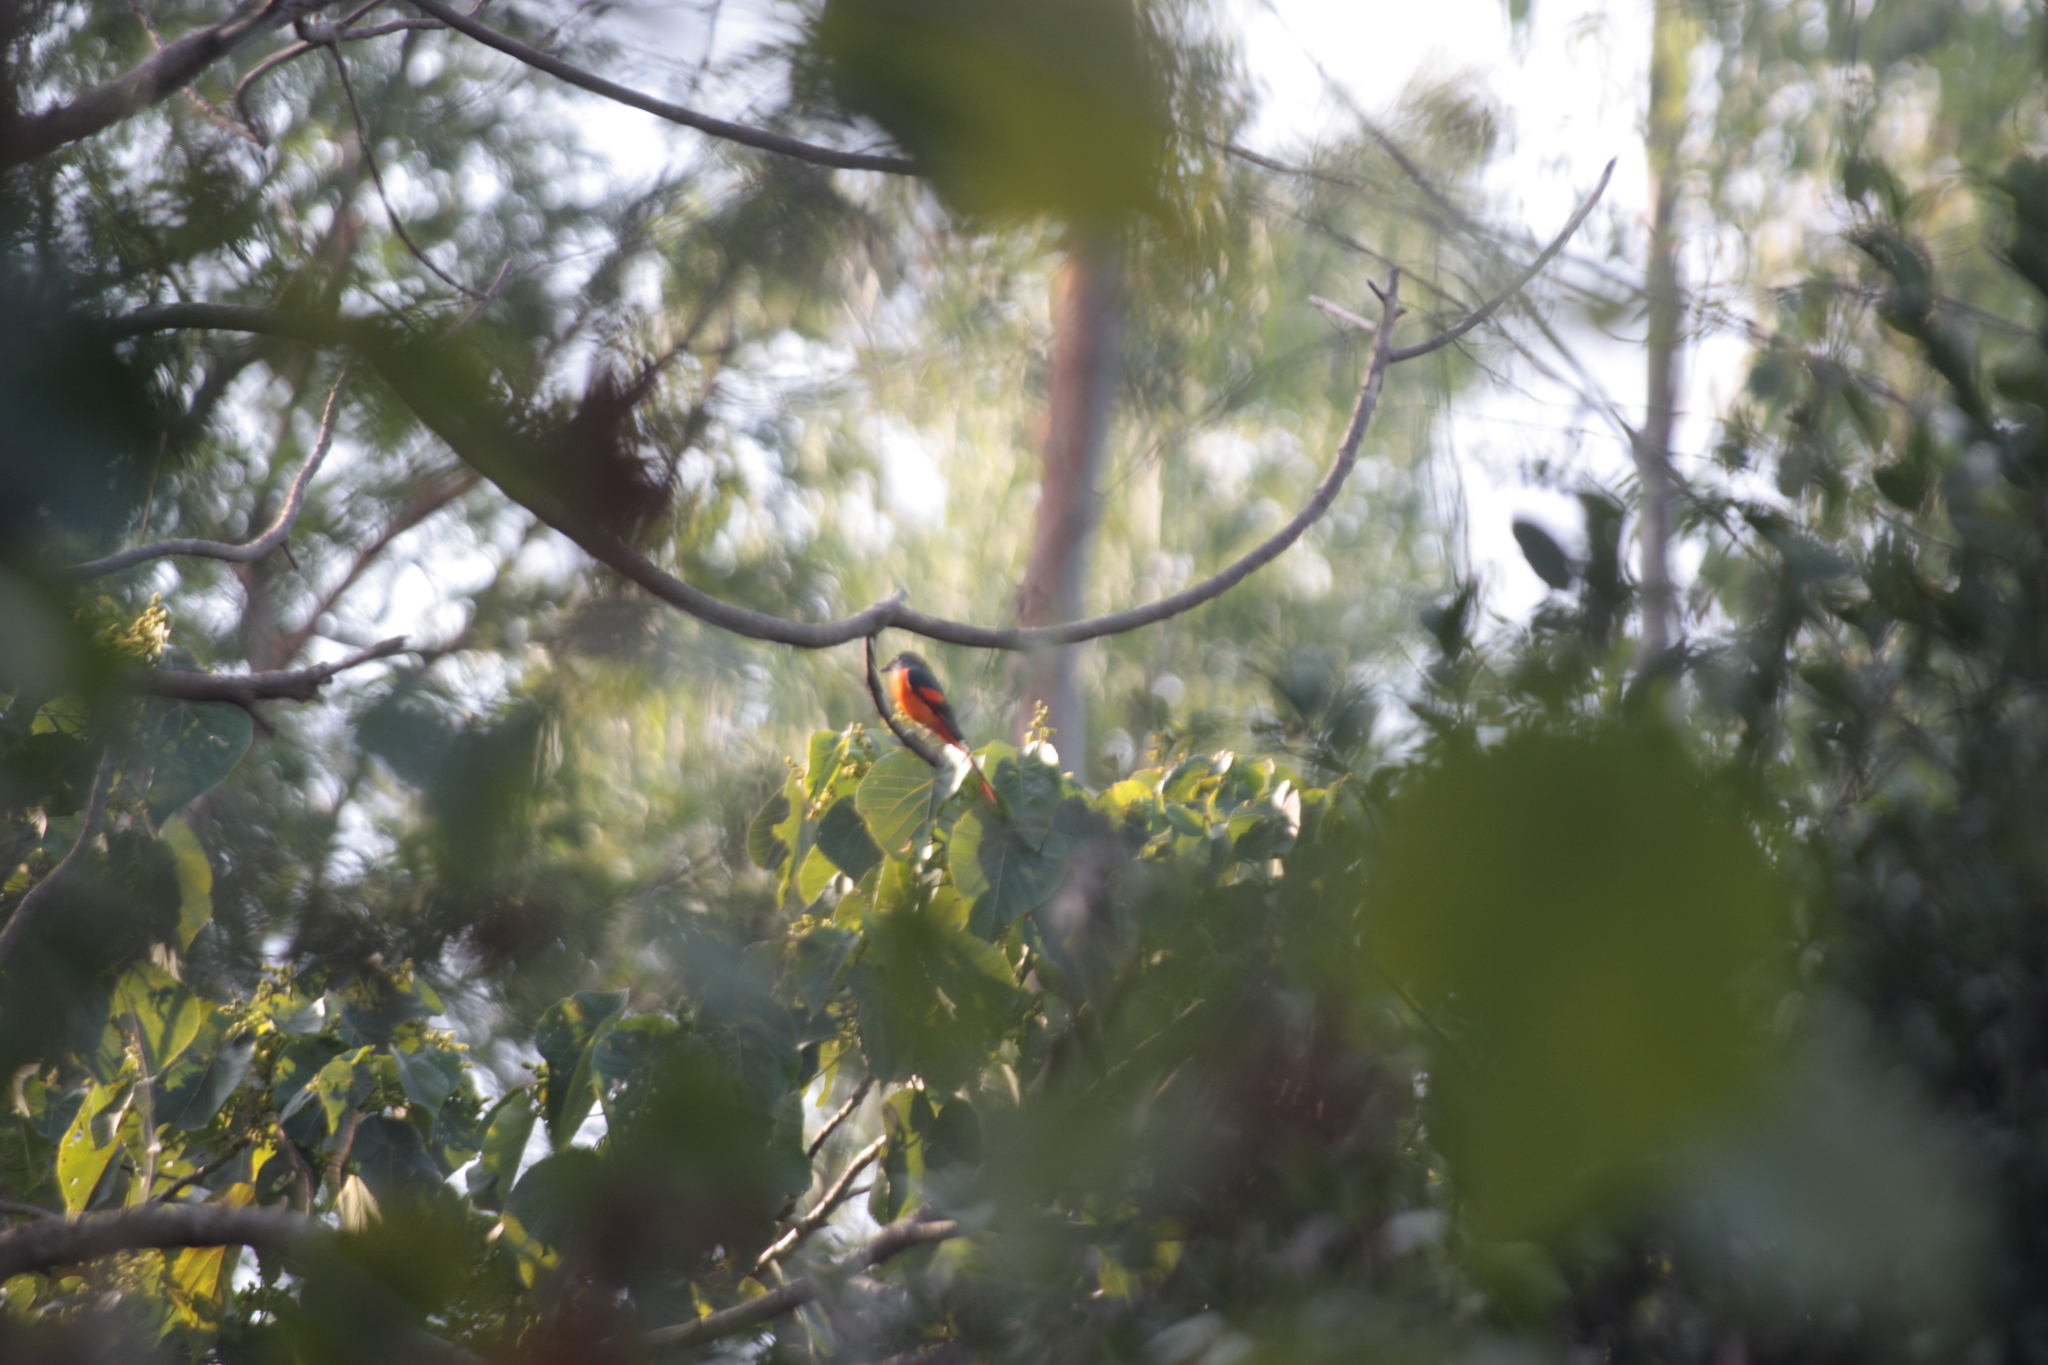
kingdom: Animalia
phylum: Chordata
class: Aves
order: Passeriformes
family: Campephagidae
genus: Pericrocotus
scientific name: Pericrocotus solaris
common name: Grey-chinned minivet
